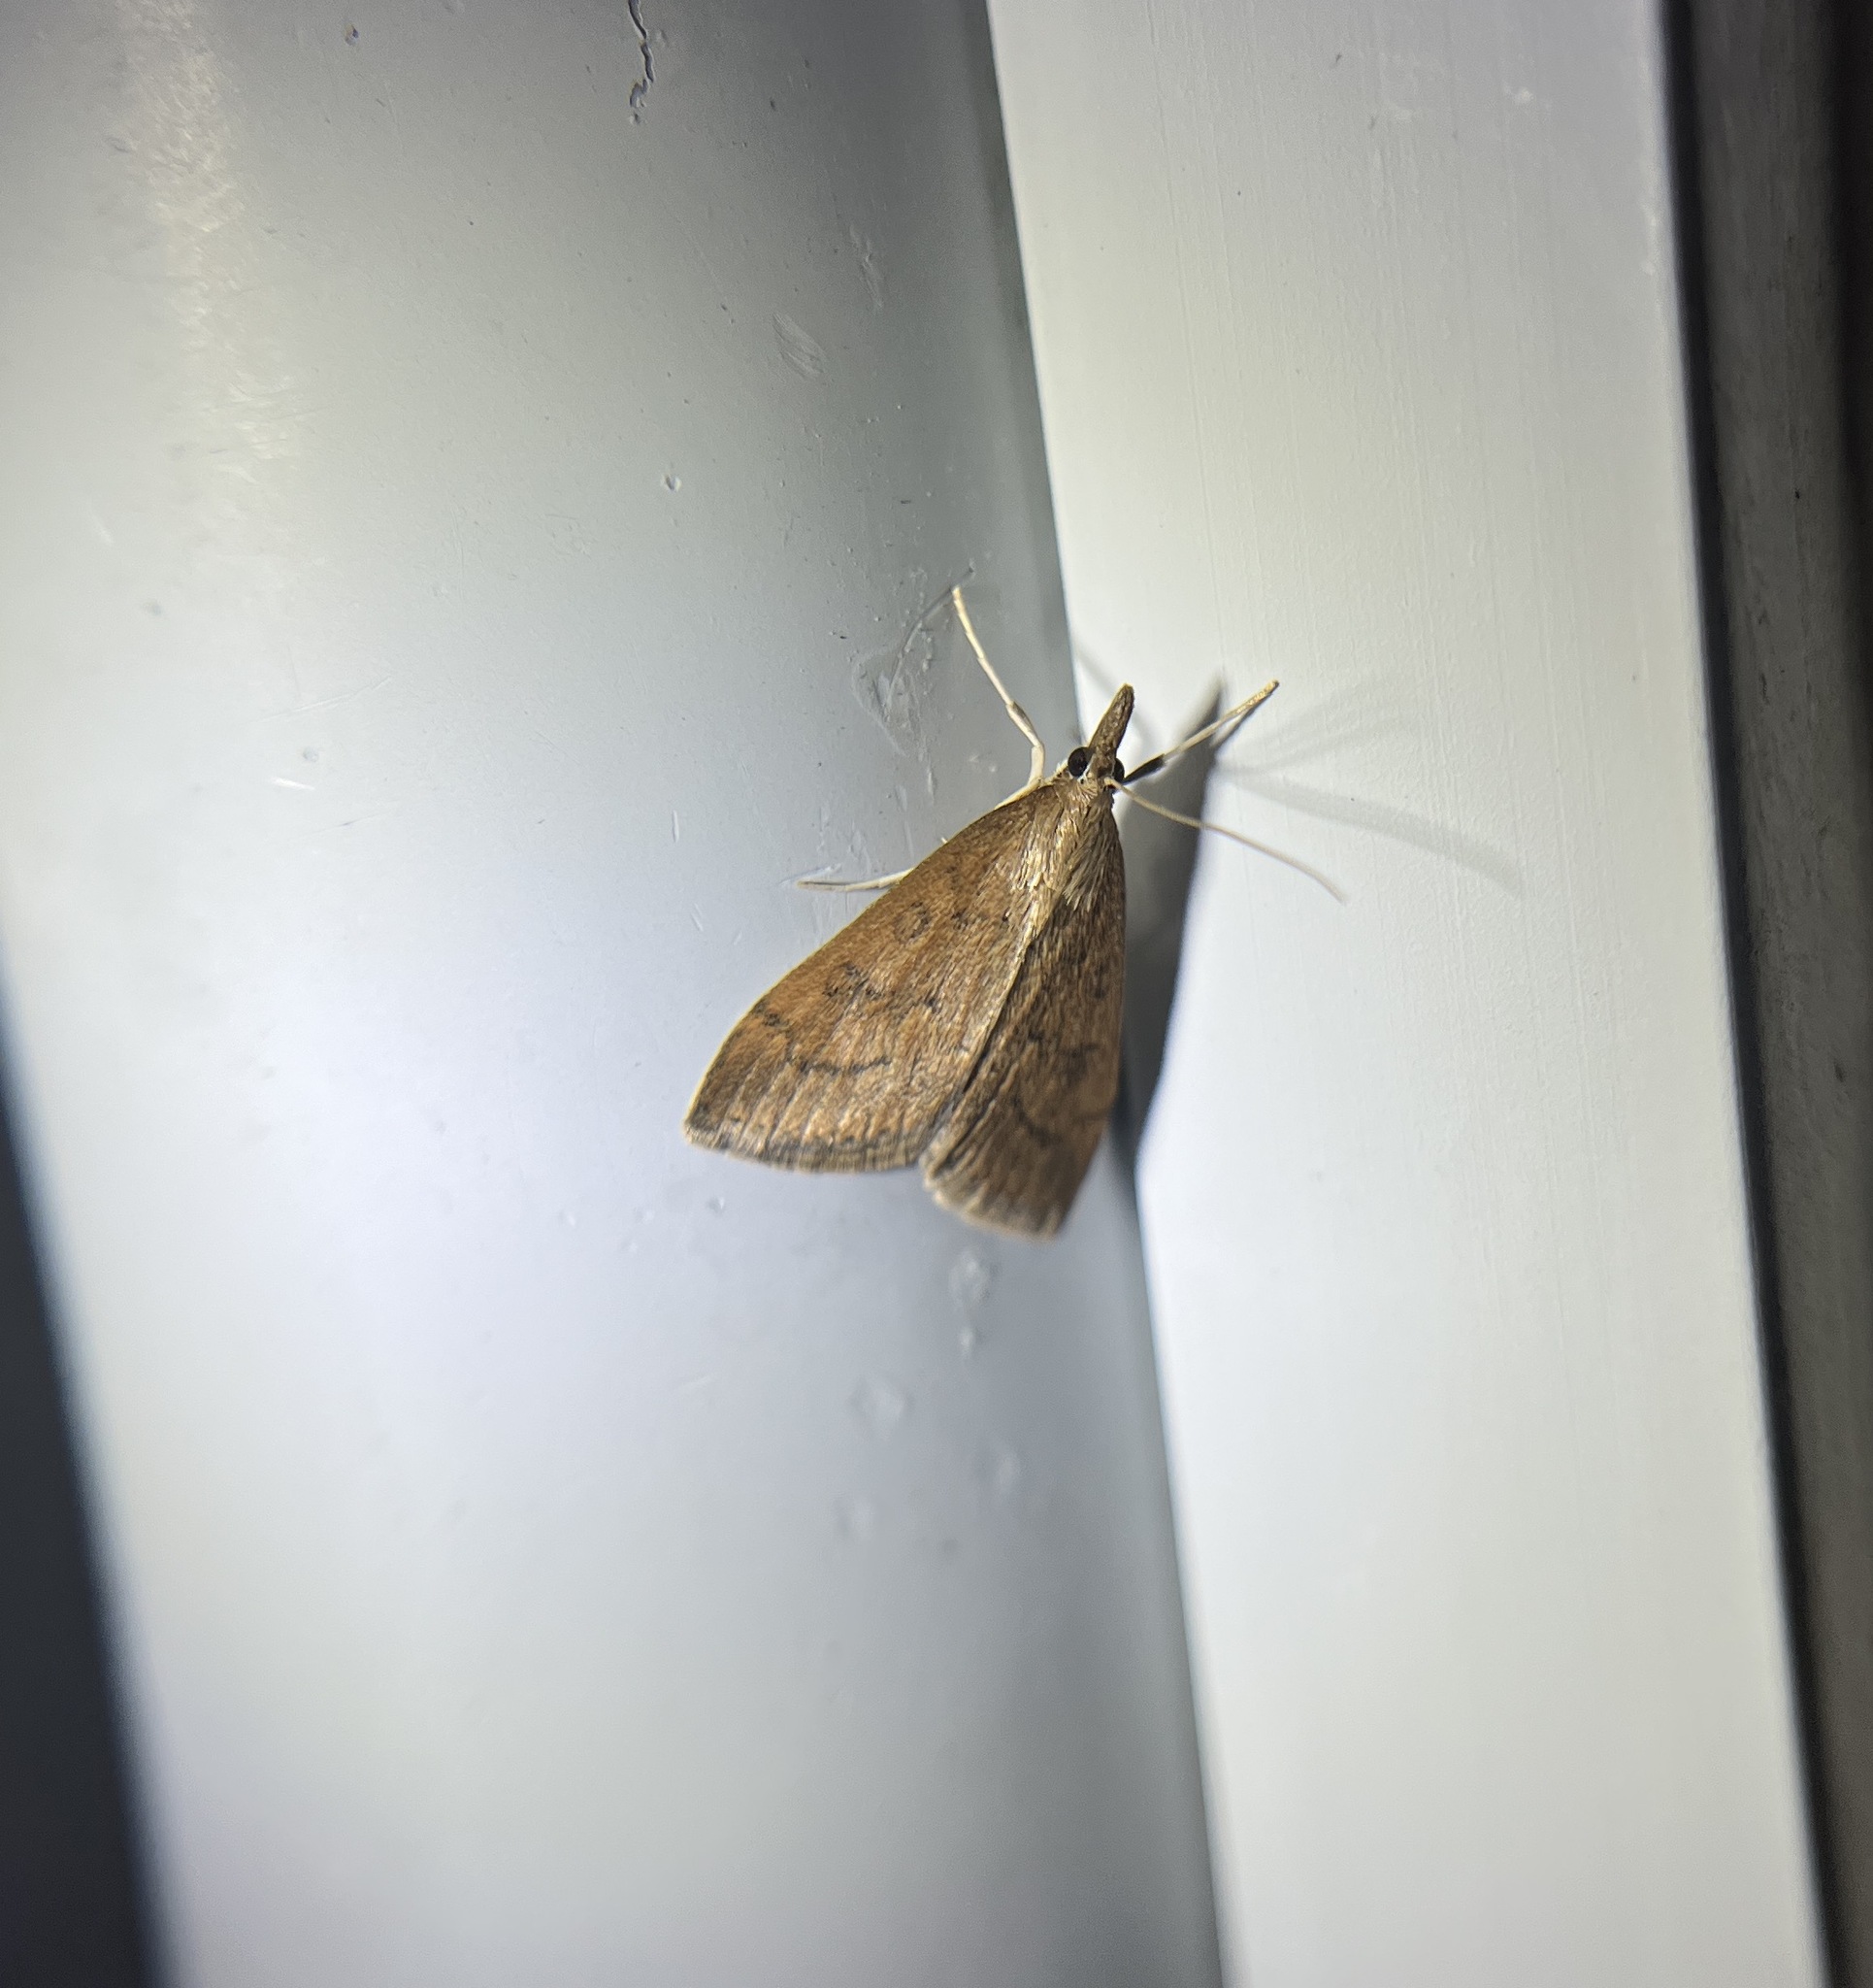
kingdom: Animalia
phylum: Arthropoda
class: Insecta
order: Lepidoptera
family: Crambidae
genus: Udea
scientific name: Udea rubigalis
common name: Celery leaftier moth
